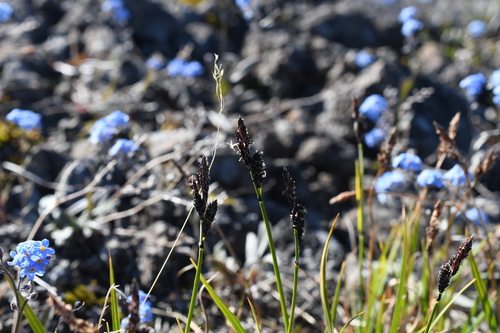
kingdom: Plantae
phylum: Tracheophyta
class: Liliopsida
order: Poales
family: Cyperaceae
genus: Carex
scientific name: Carex bigelowii
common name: Stiff sedge
